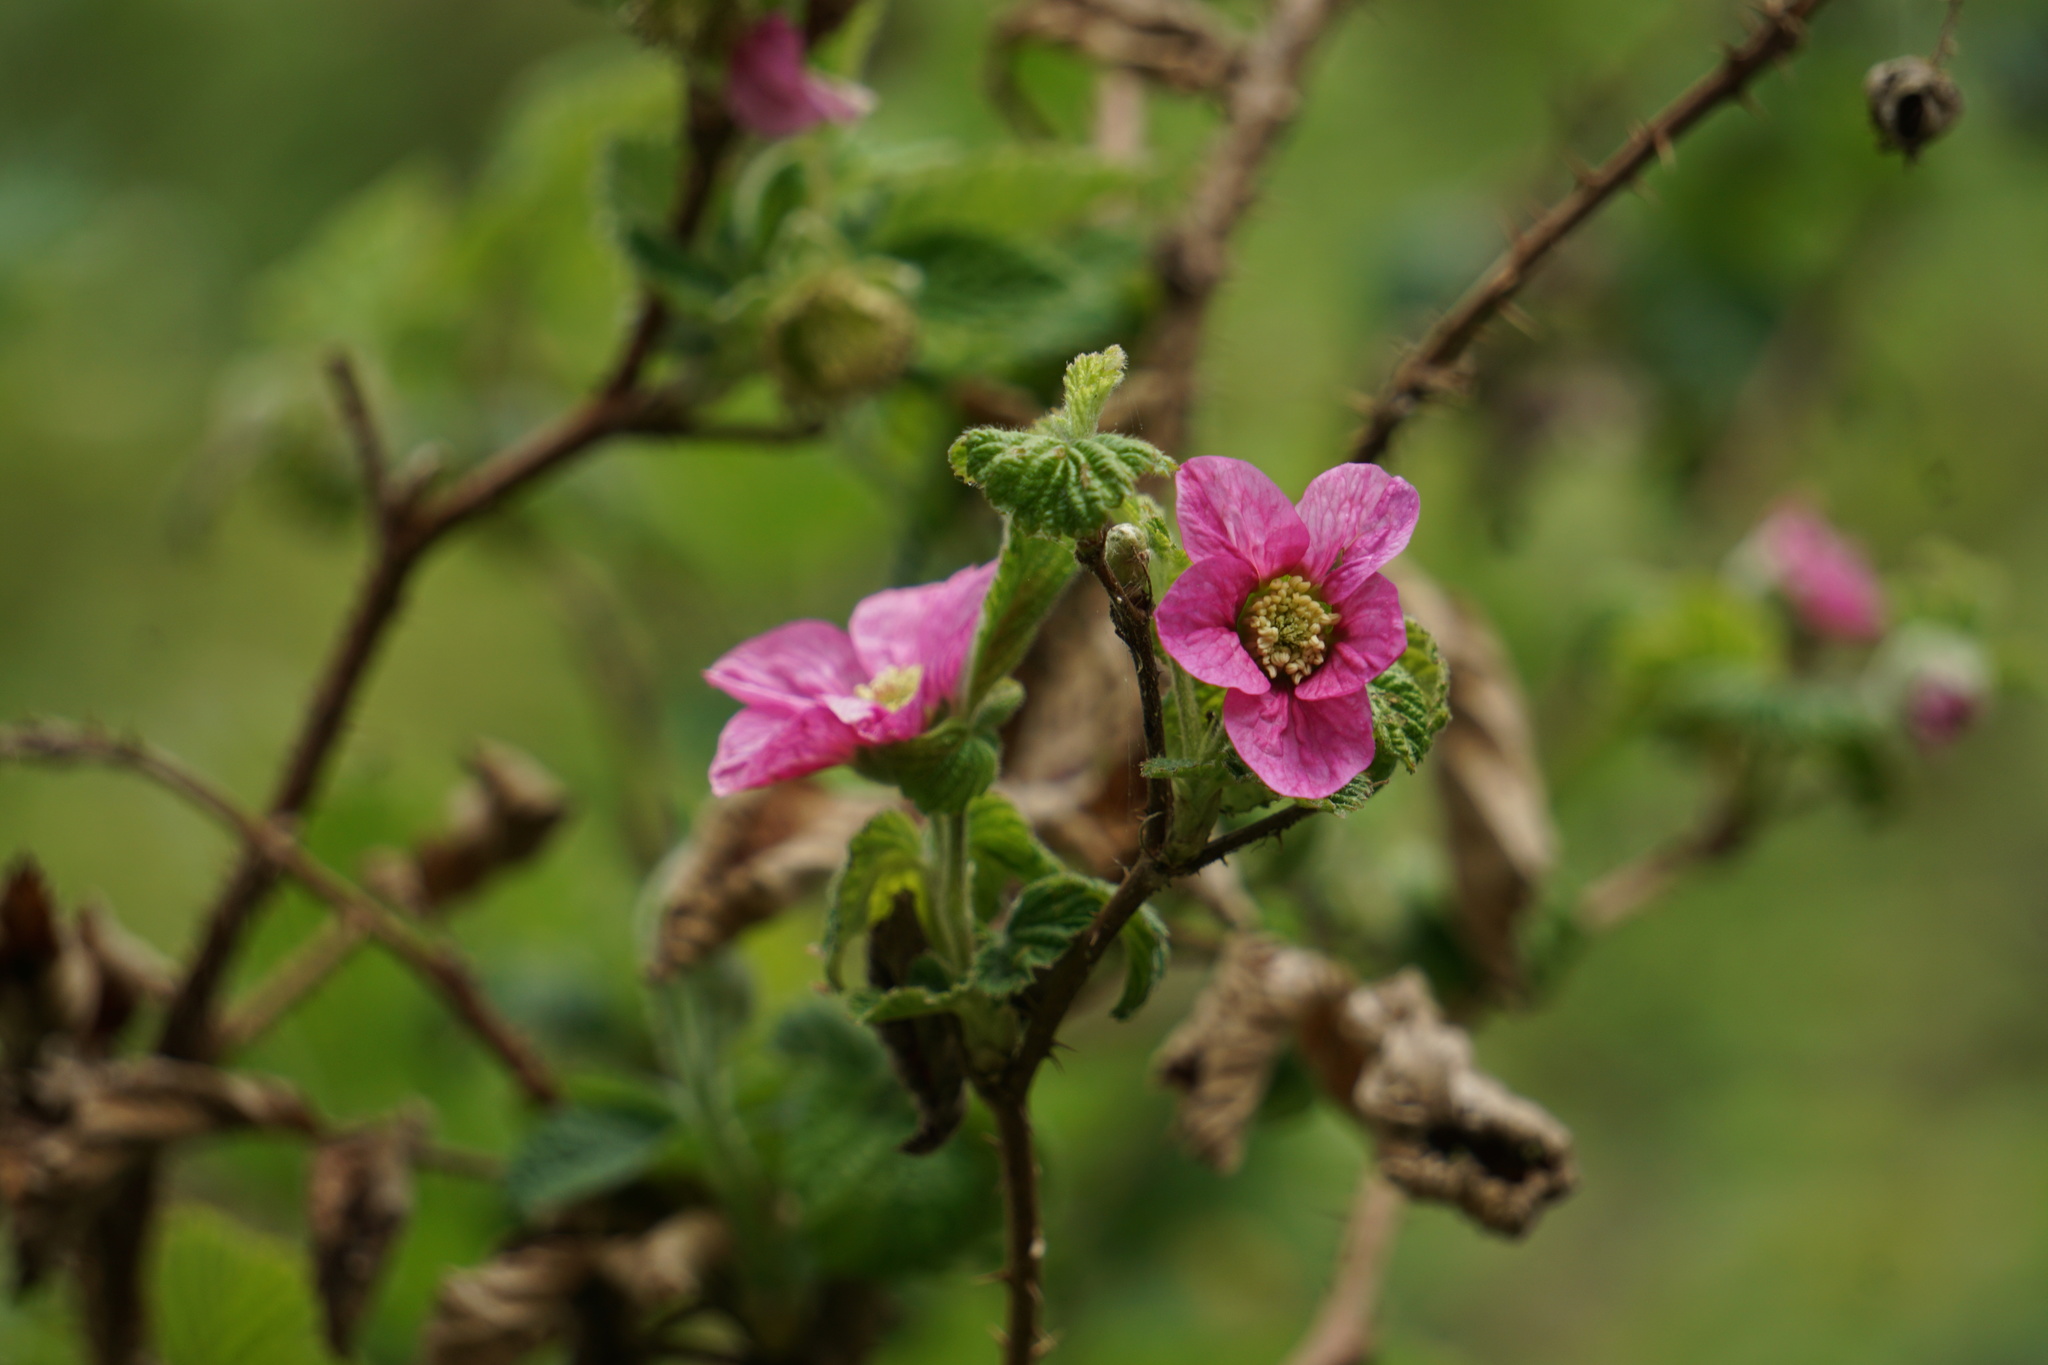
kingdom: Plantae
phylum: Tracheophyta
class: Magnoliopsida
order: Rosales
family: Rosaceae
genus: Rubus
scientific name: Rubus spectabilis
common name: Salmonberry
